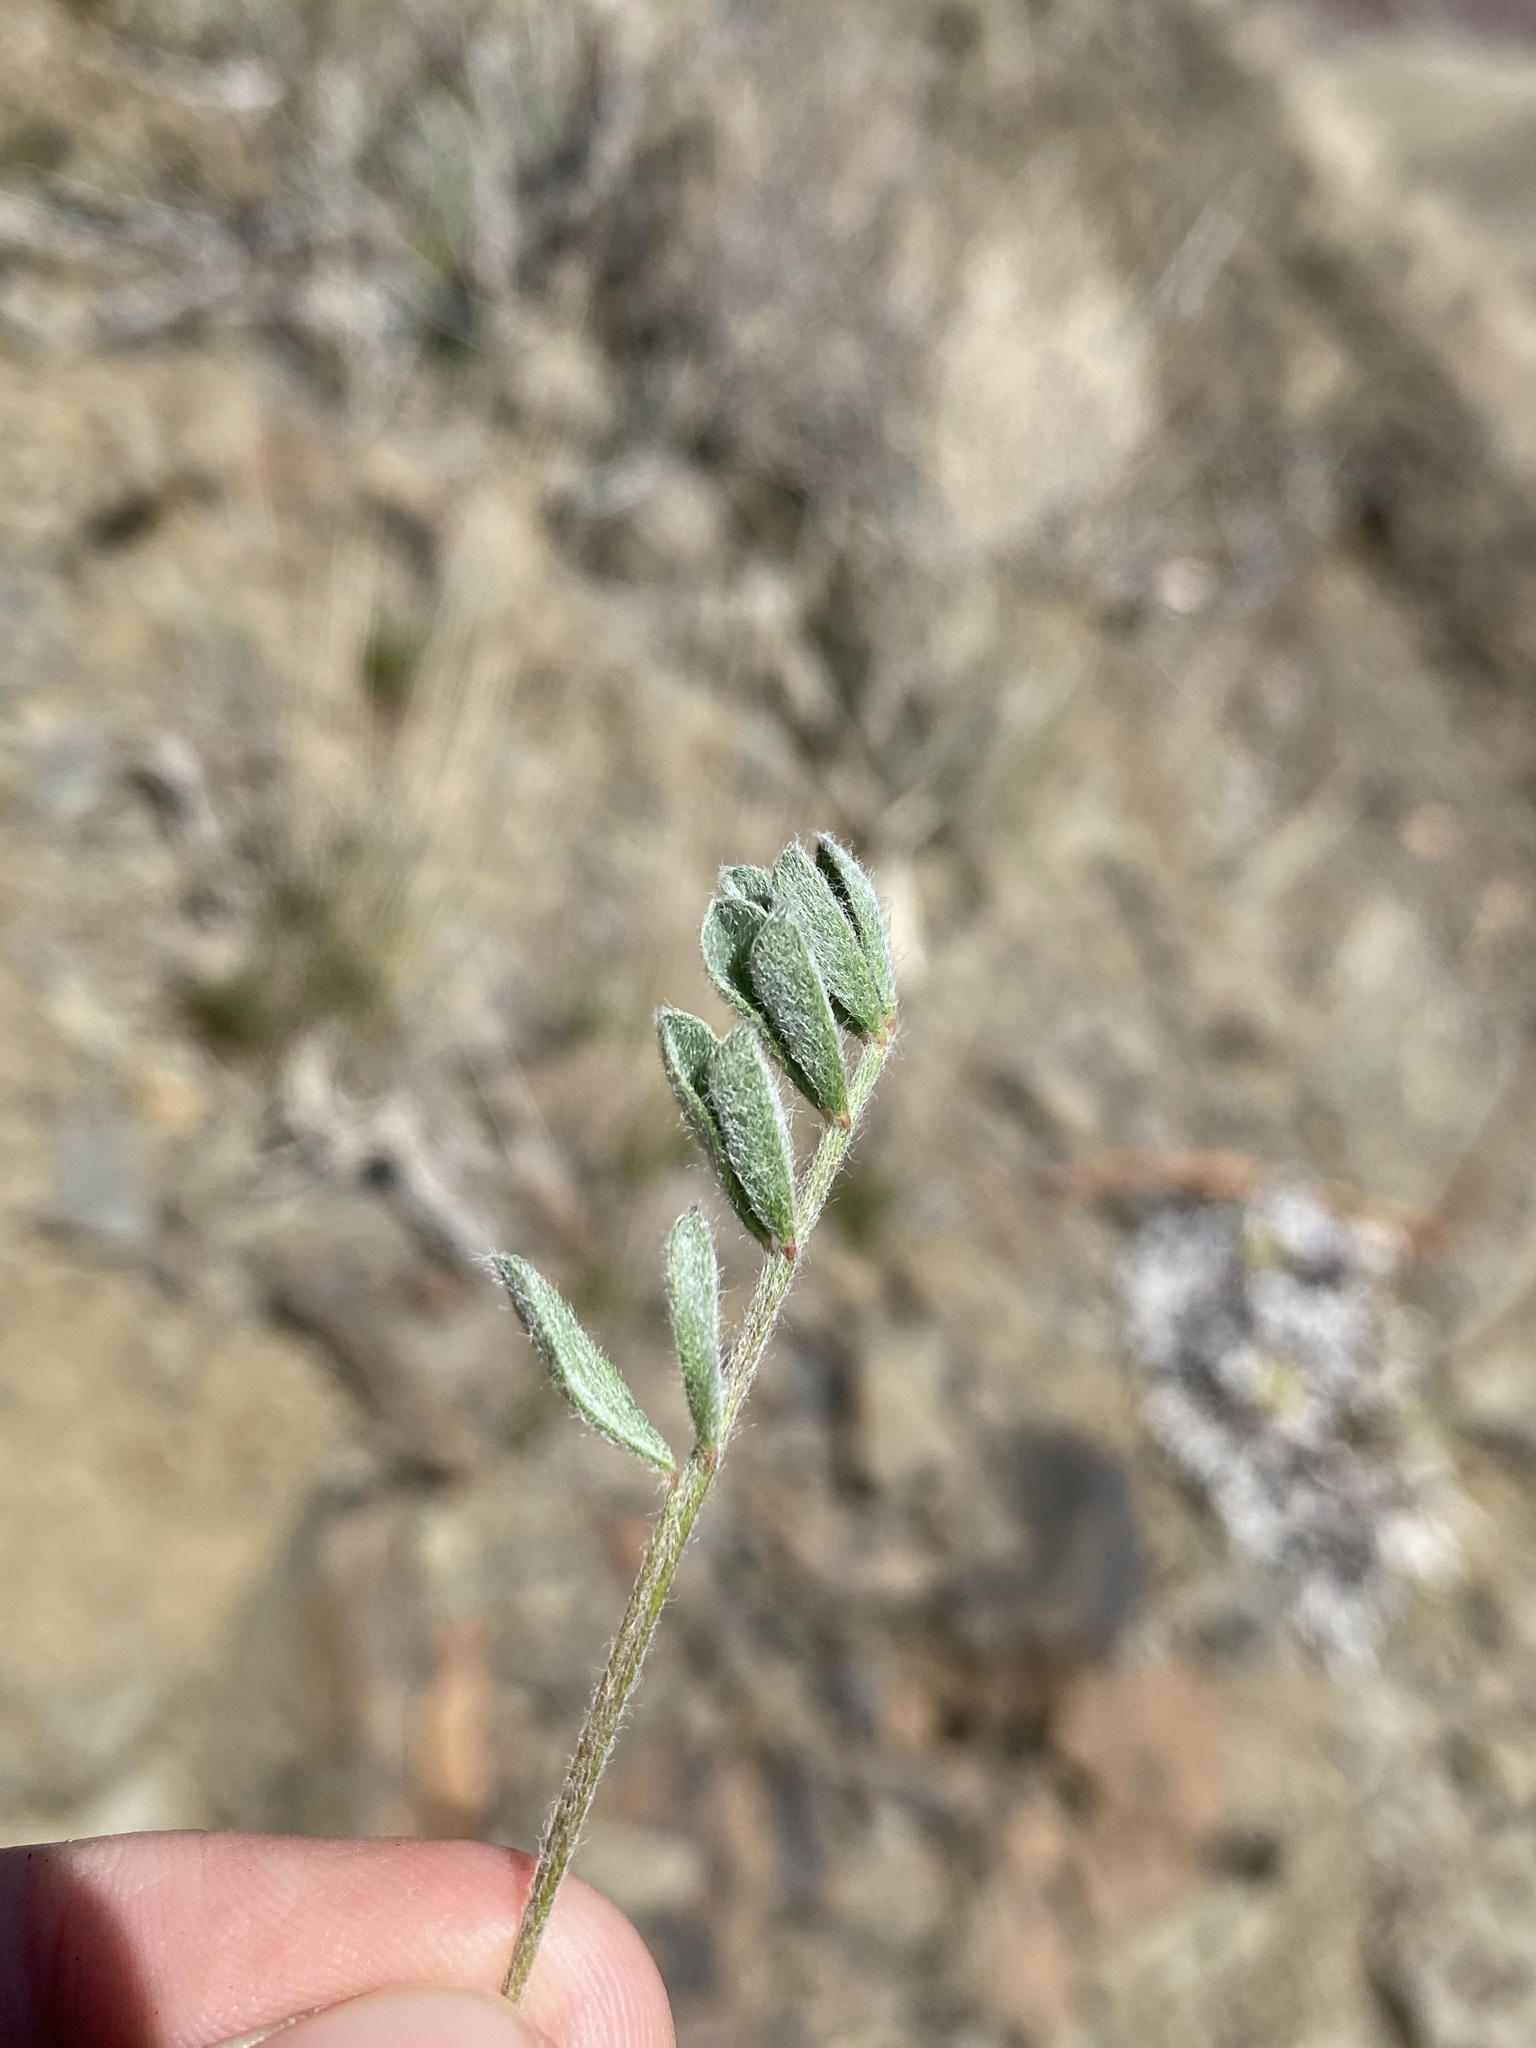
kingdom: Plantae
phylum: Tracheophyta
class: Magnoliopsida
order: Fabales
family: Fabaceae
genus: Astragalus
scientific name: Astragalus purshii
